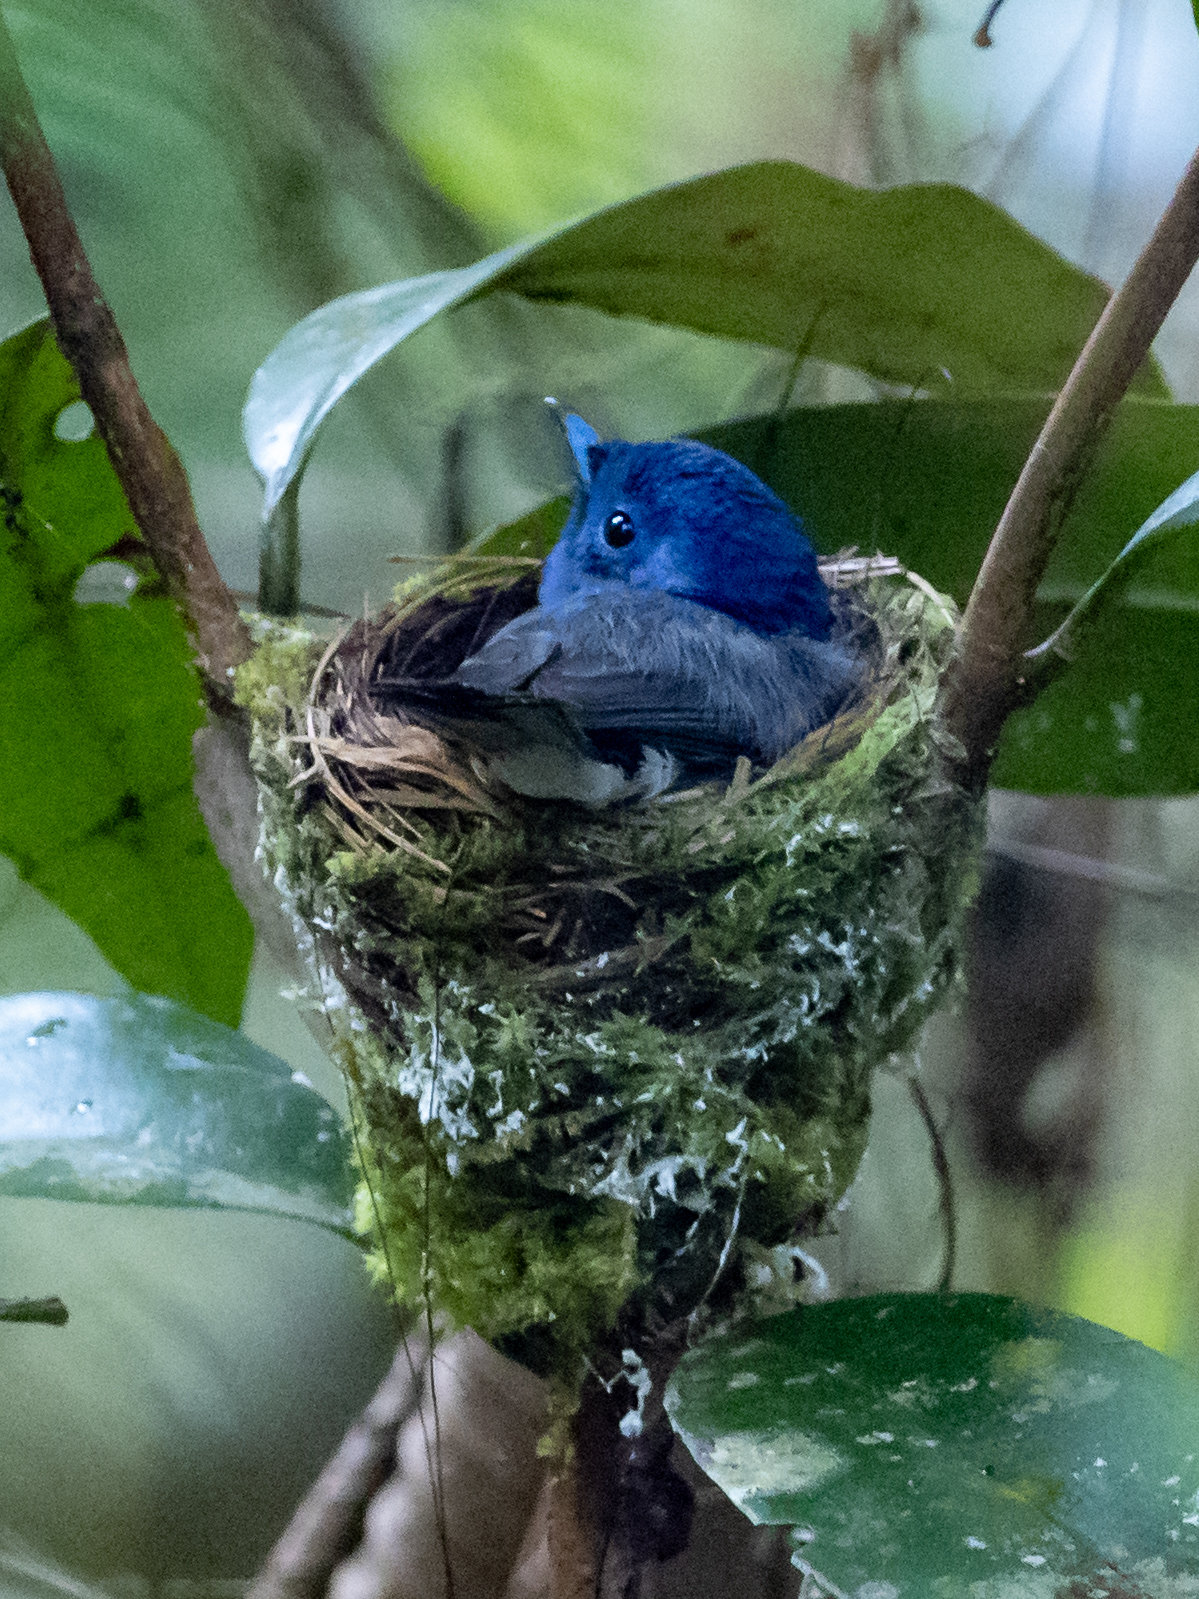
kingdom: Animalia
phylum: Chordata
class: Aves
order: Passeriformes
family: Monarchidae
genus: Hypothymis
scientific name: Hypothymis azurea
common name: Black-naped monarch
